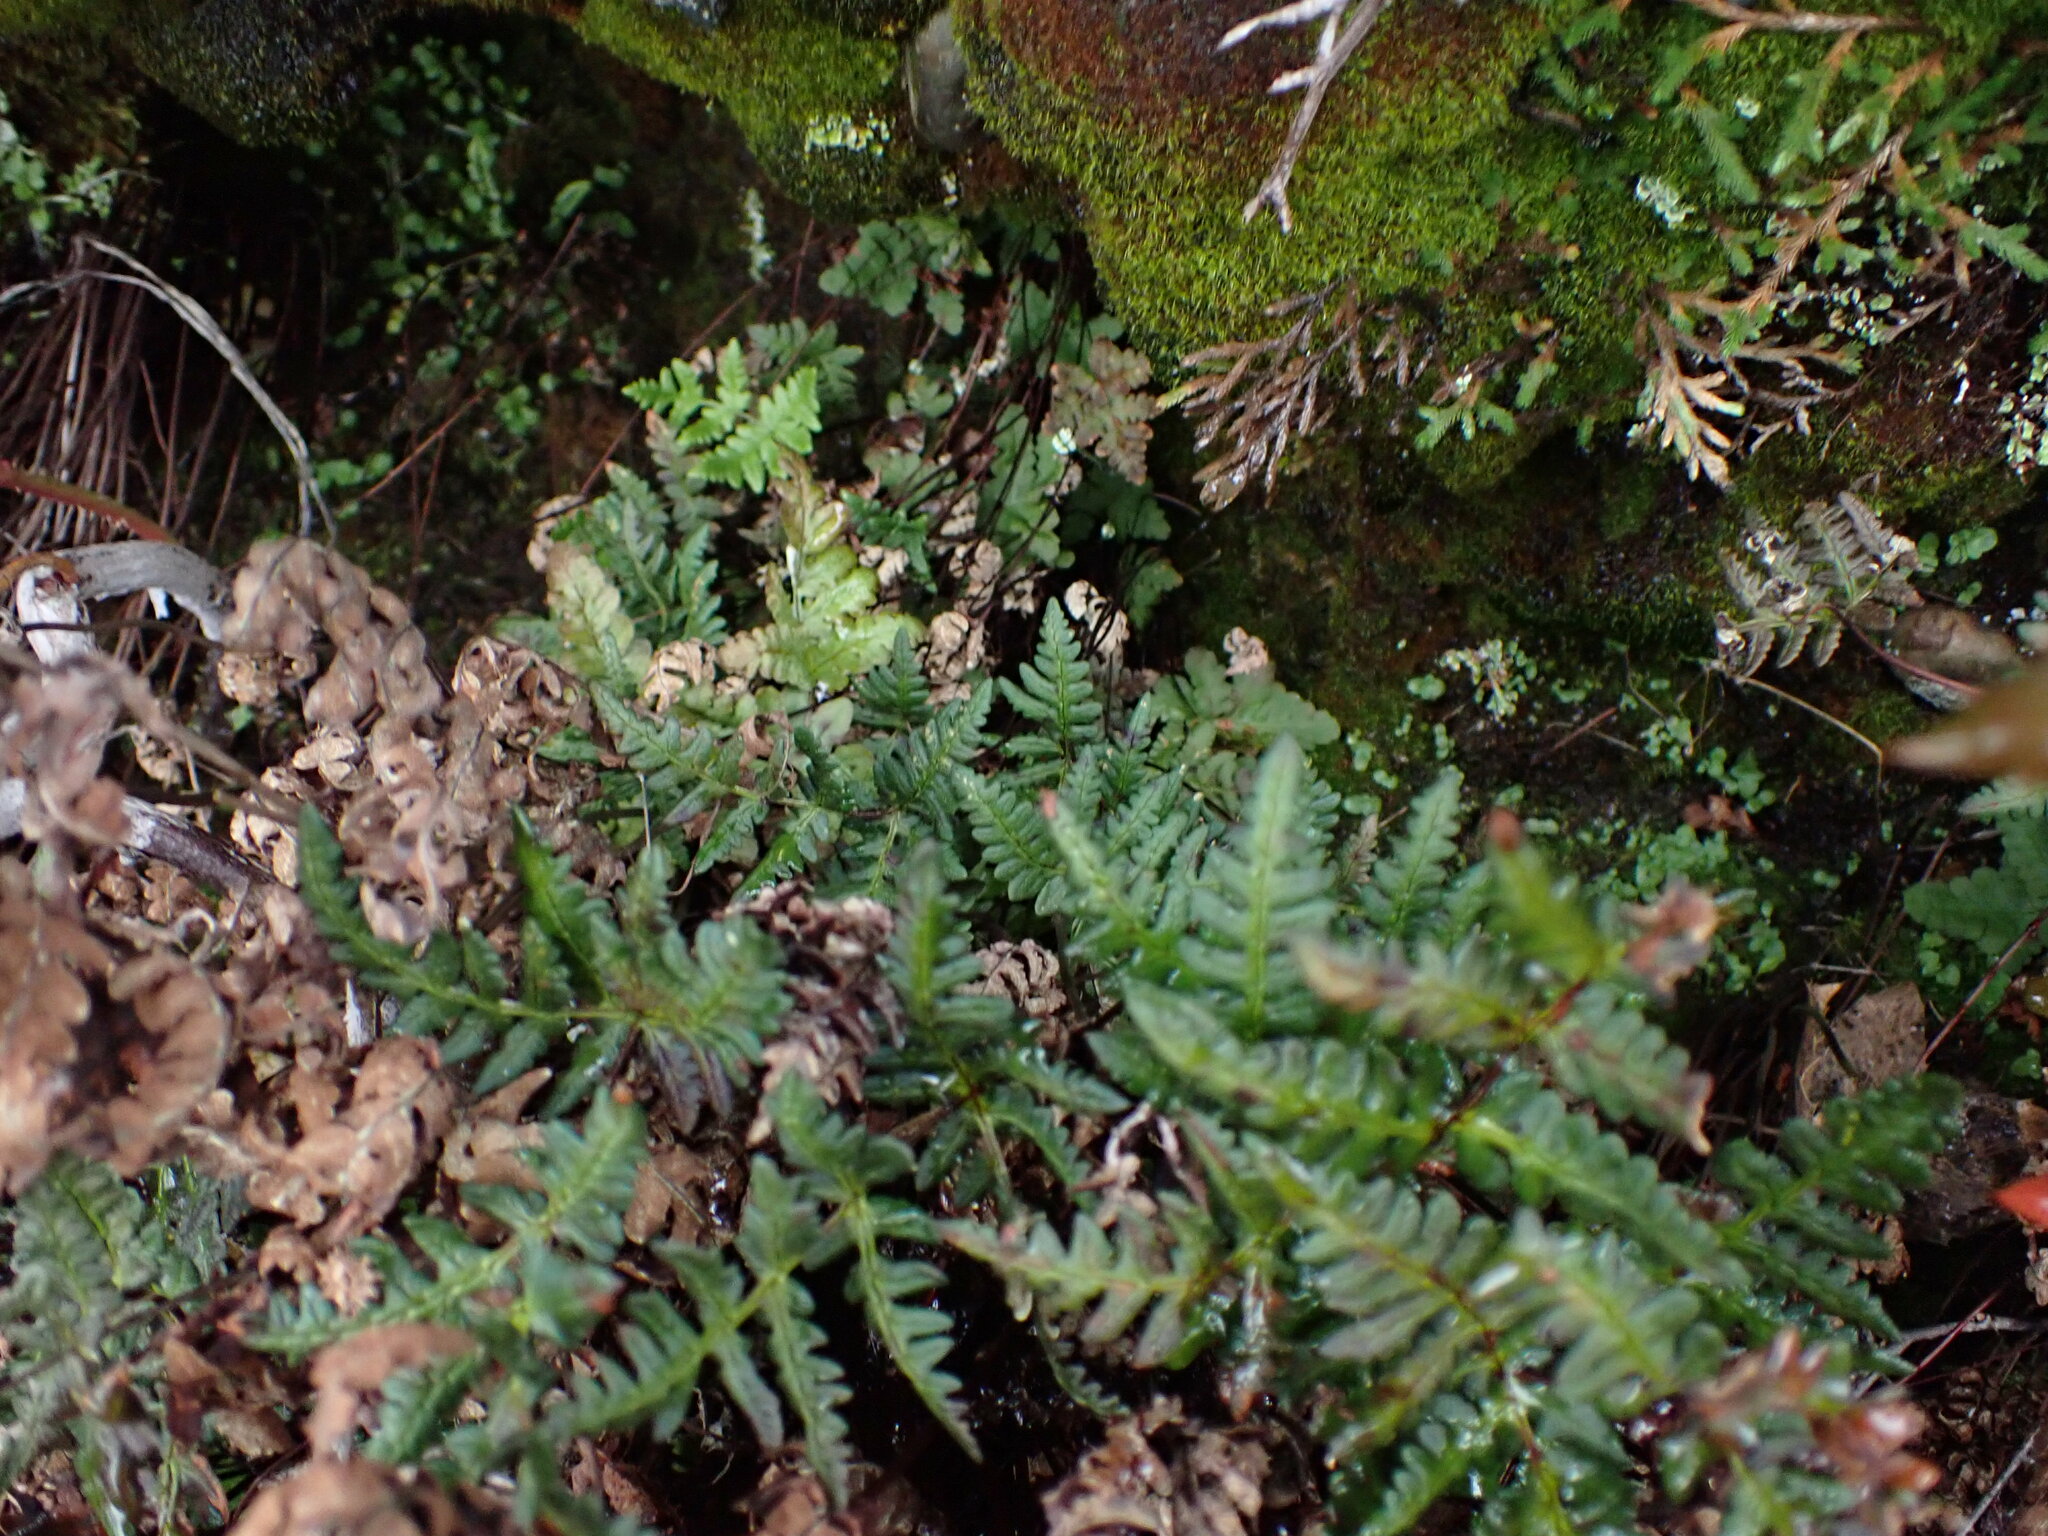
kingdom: Plantae
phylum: Tracheophyta
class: Polypodiopsida
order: Polypodiales
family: Pteridaceae
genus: Pentagramma
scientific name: Pentagramma triangularis
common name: Gold fern
